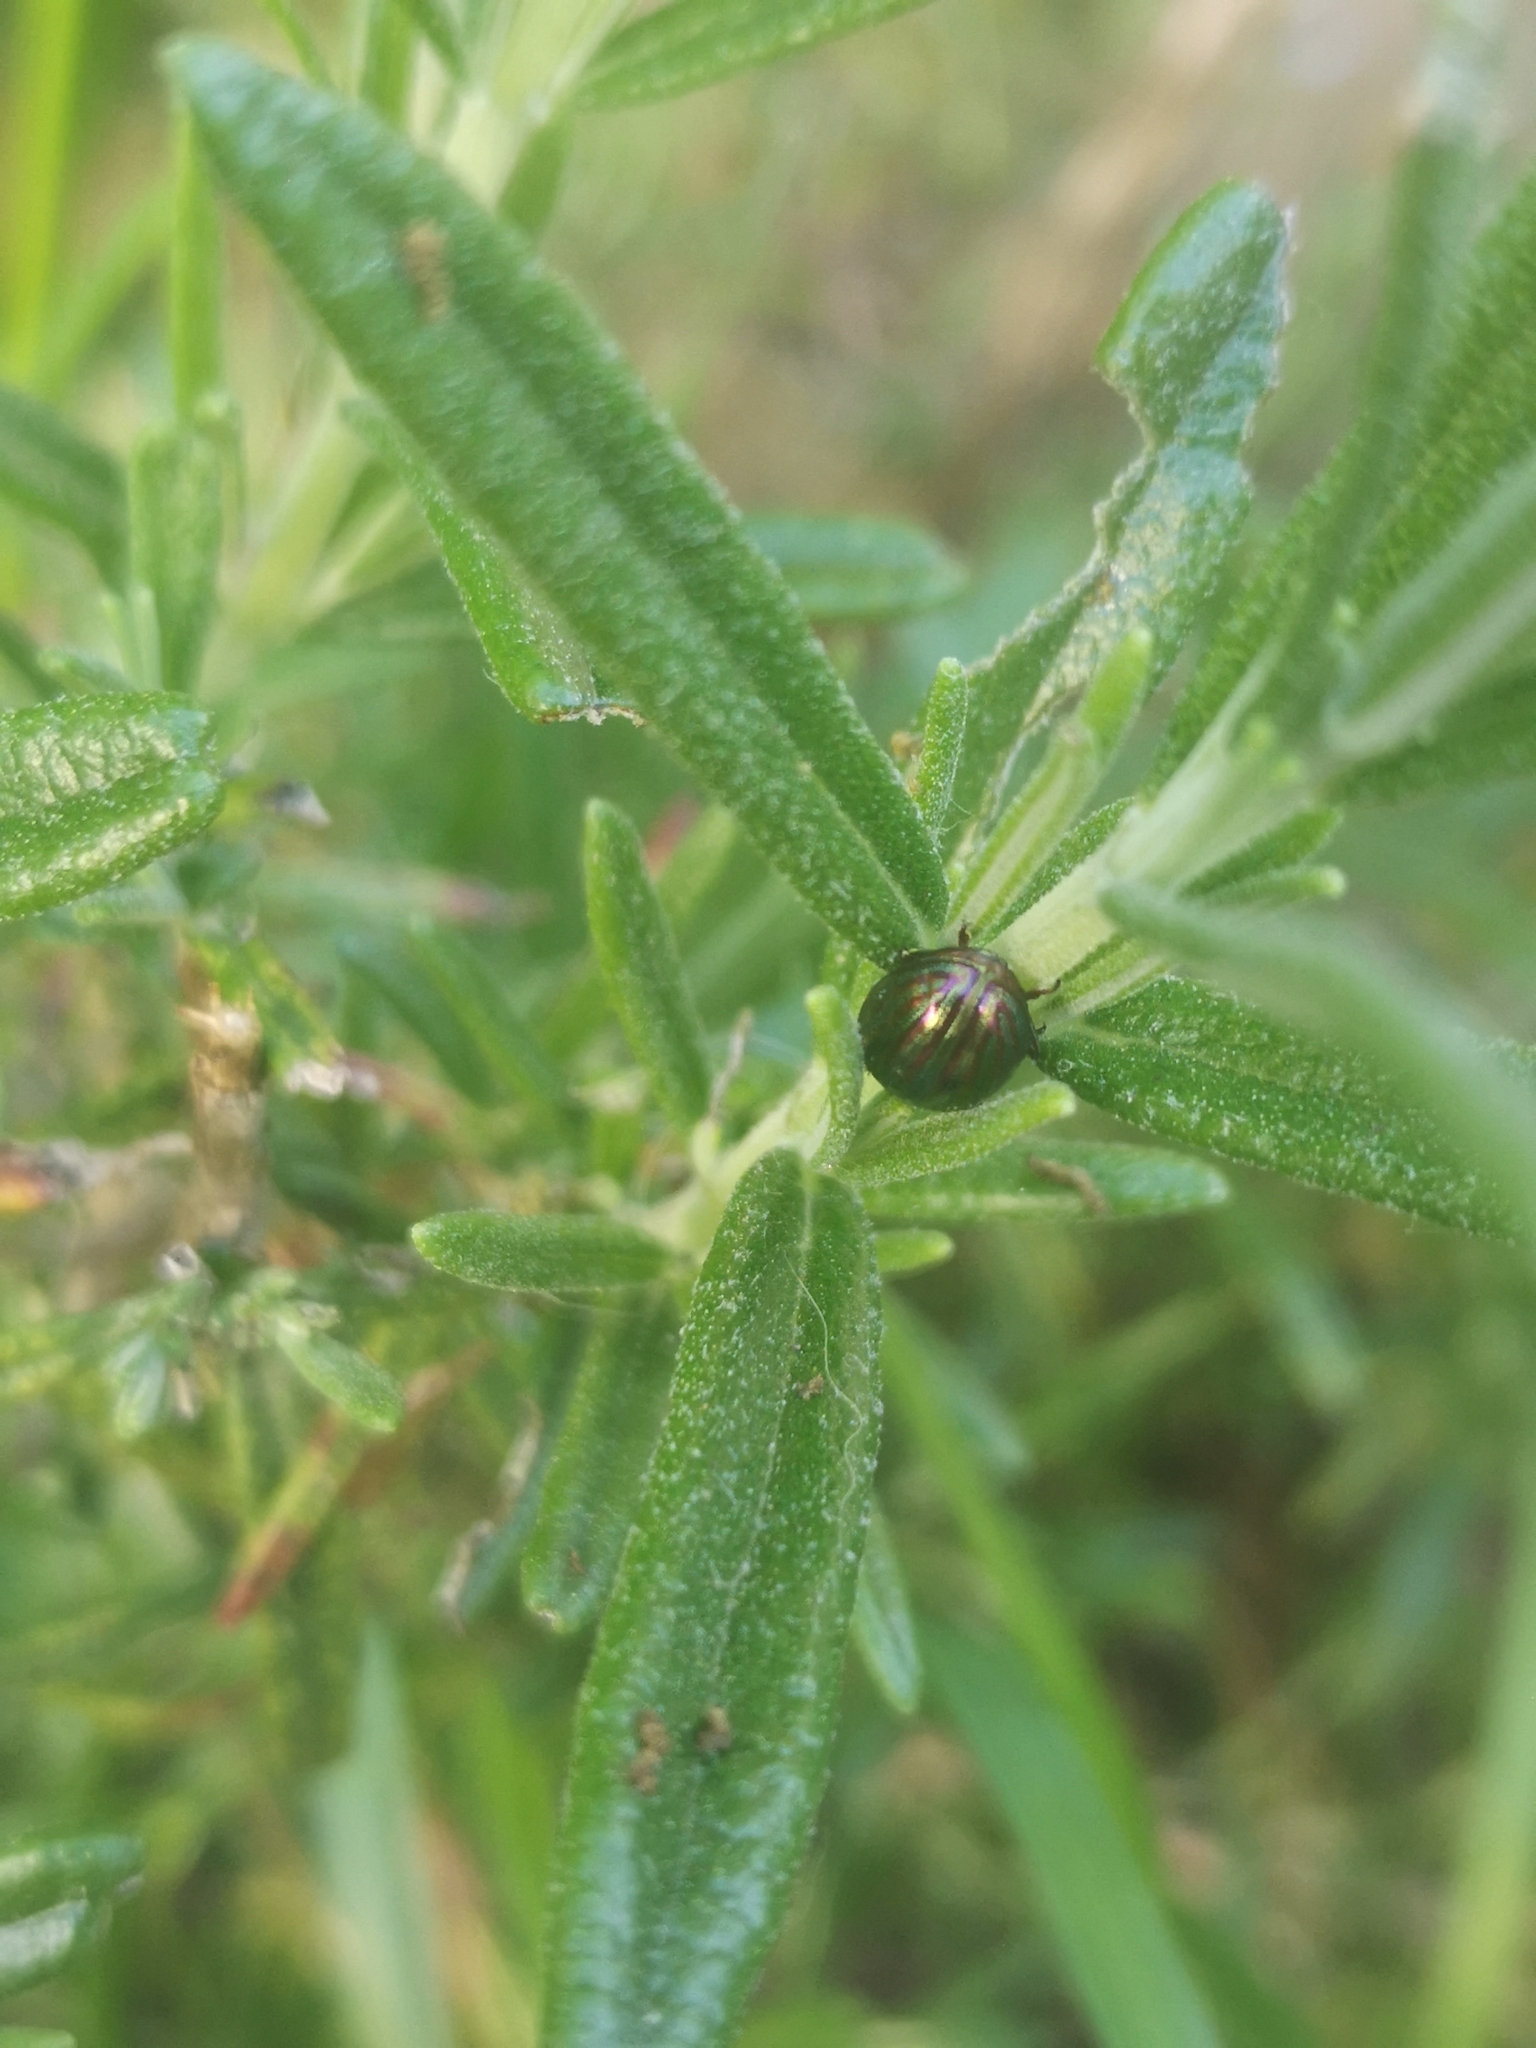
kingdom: Animalia
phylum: Arthropoda
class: Insecta
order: Coleoptera
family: Chrysomelidae
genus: Chrysolina
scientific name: Chrysolina americana
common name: Rosemary beetle
